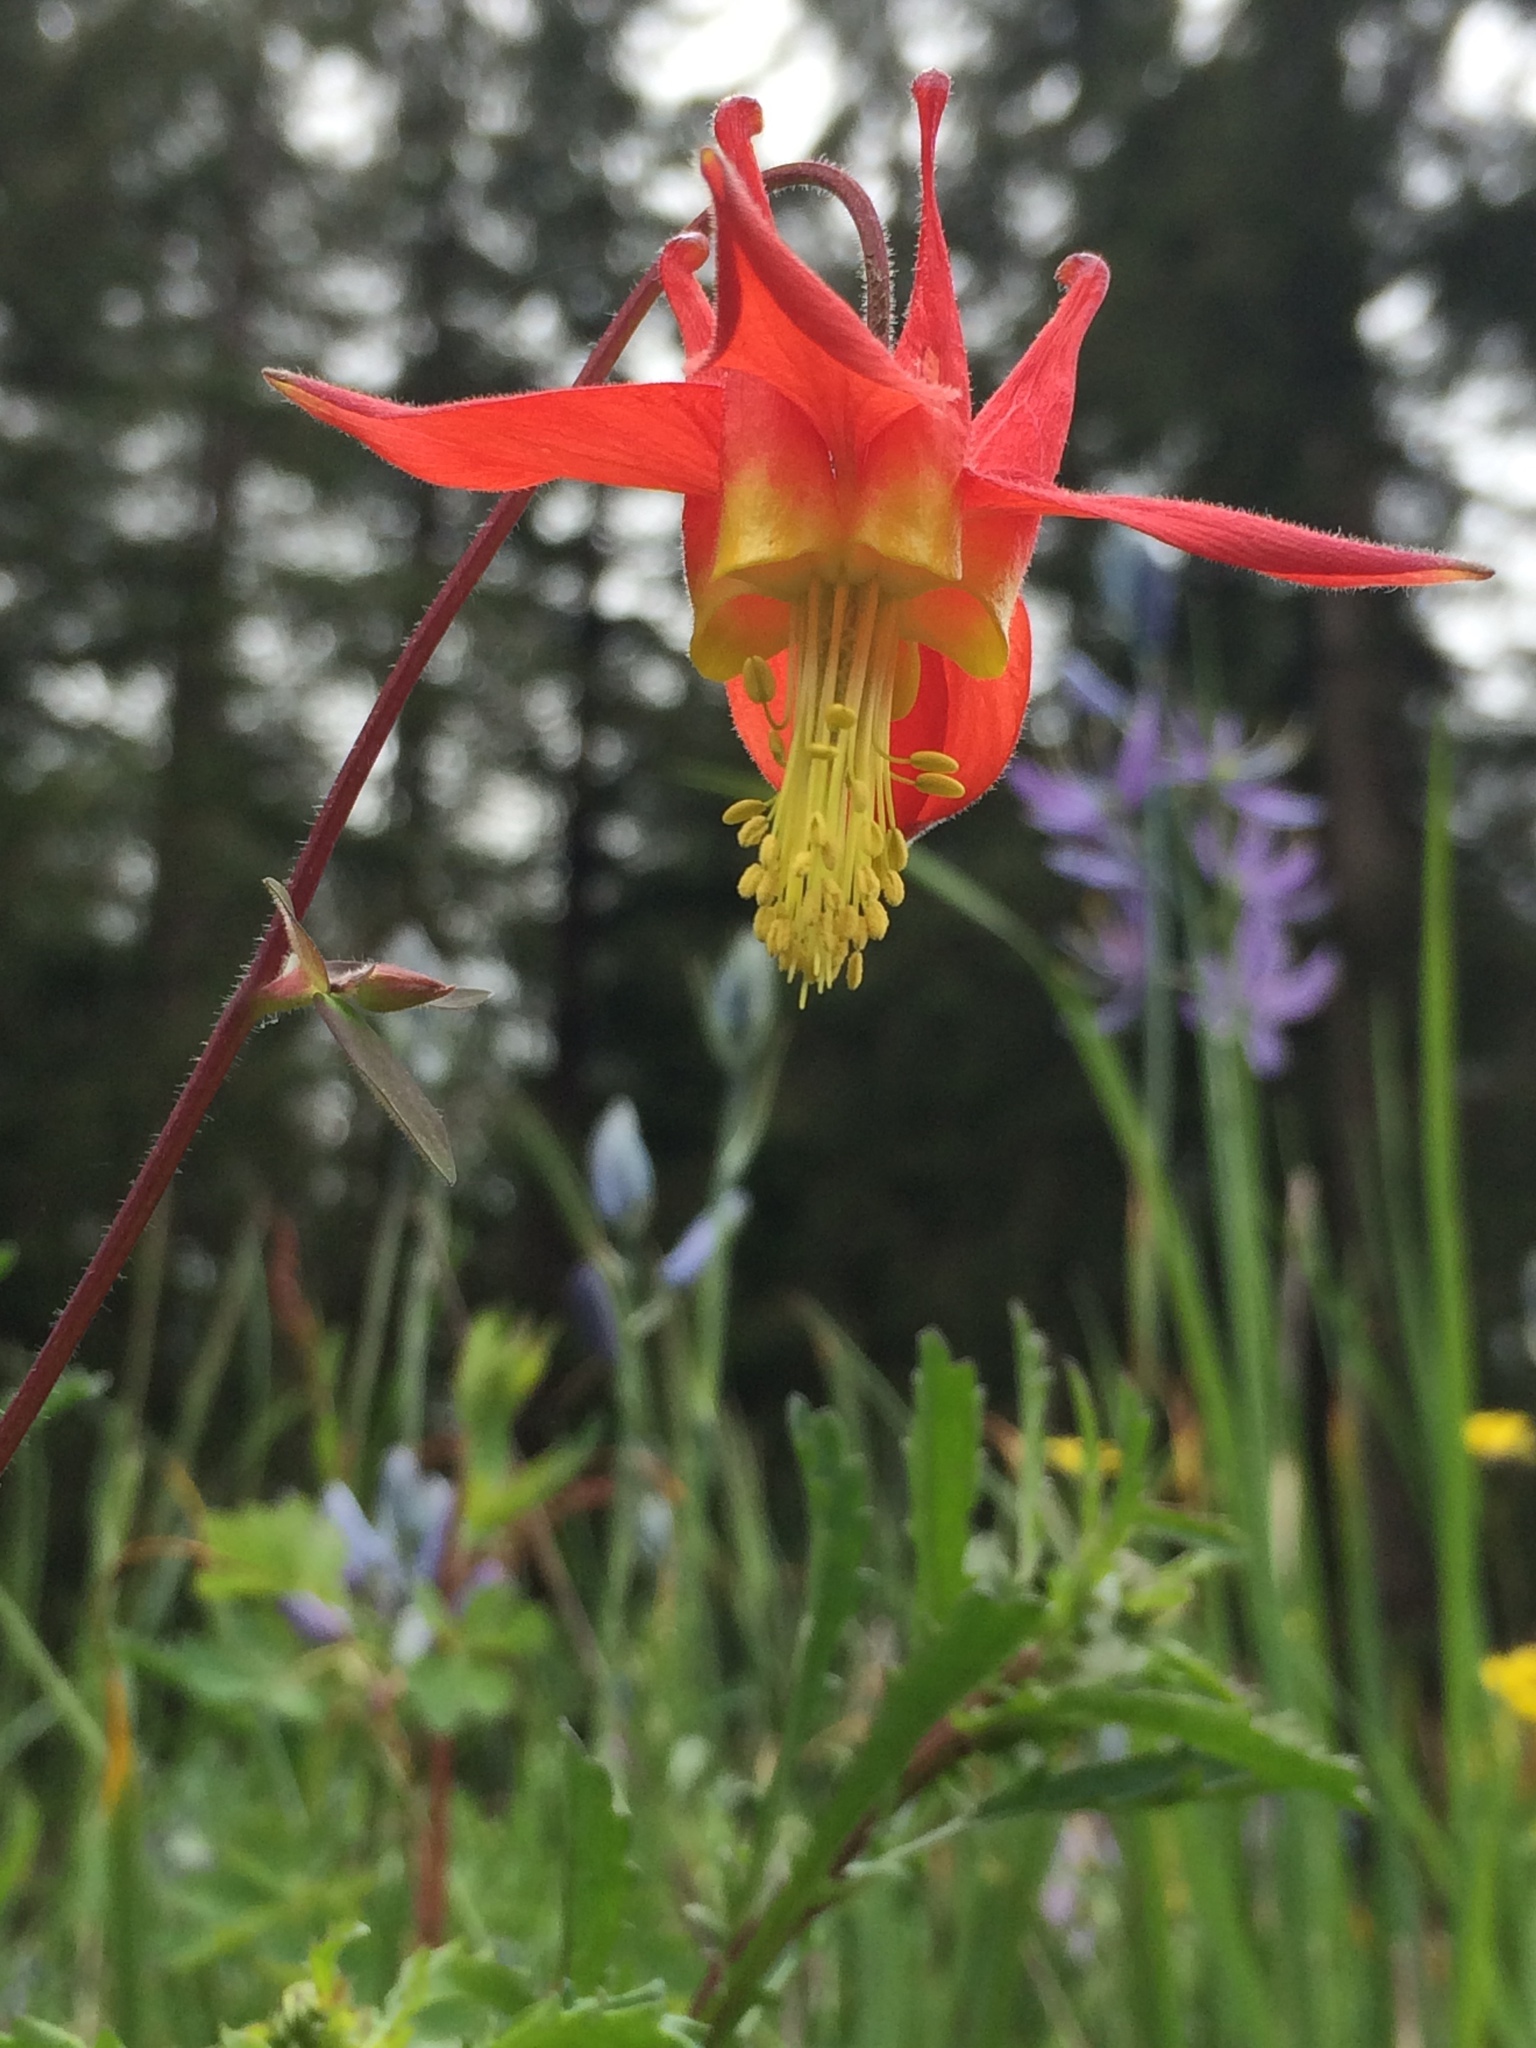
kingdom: Plantae
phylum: Tracheophyta
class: Magnoliopsida
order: Ranunculales
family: Ranunculaceae
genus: Aquilegia
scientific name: Aquilegia formosa
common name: Sitka columbine
